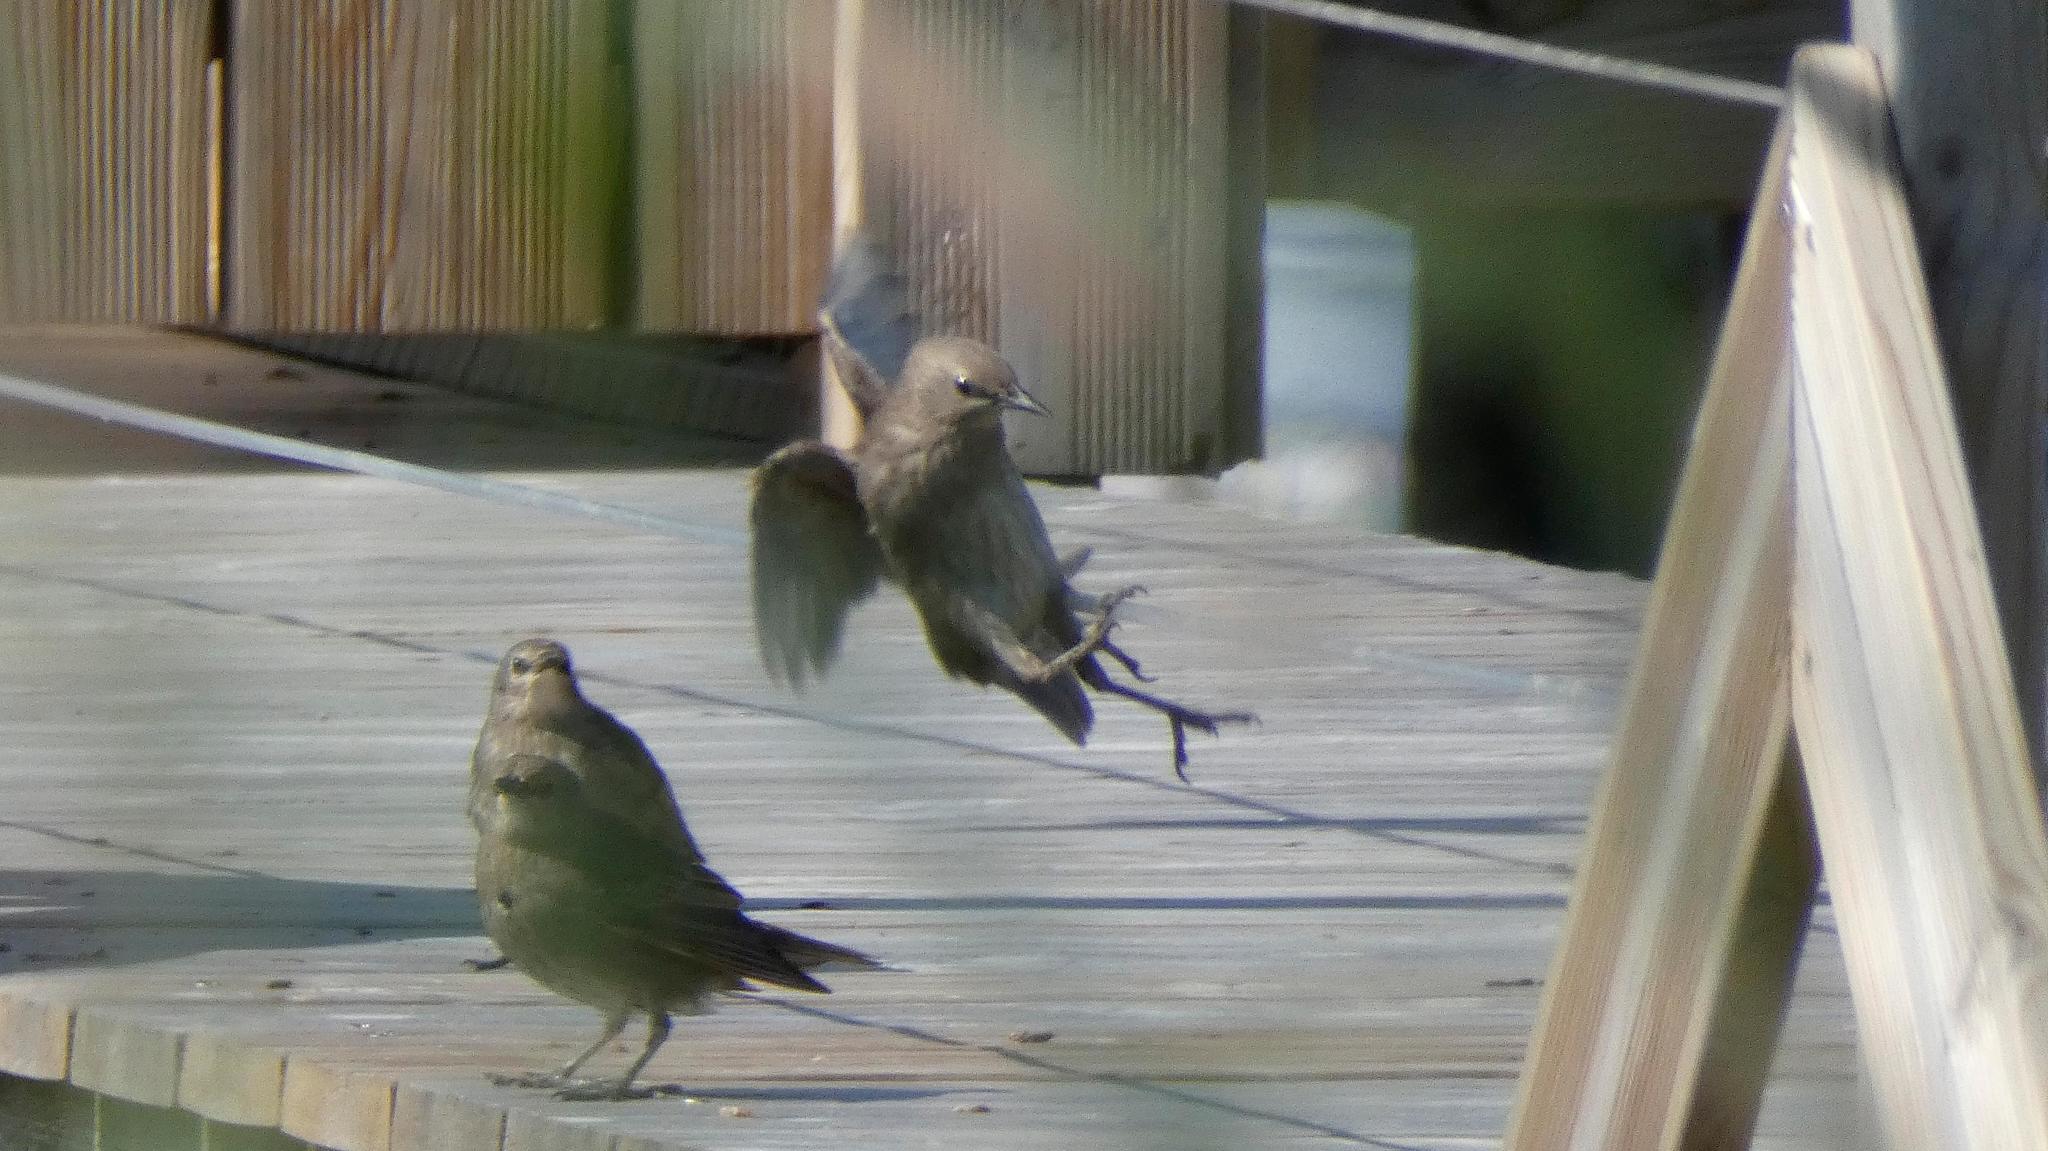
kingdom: Animalia
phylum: Chordata
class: Aves
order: Passeriformes
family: Sturnidae
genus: Sturnus
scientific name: Sturnus vulgaris
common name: Common starling
